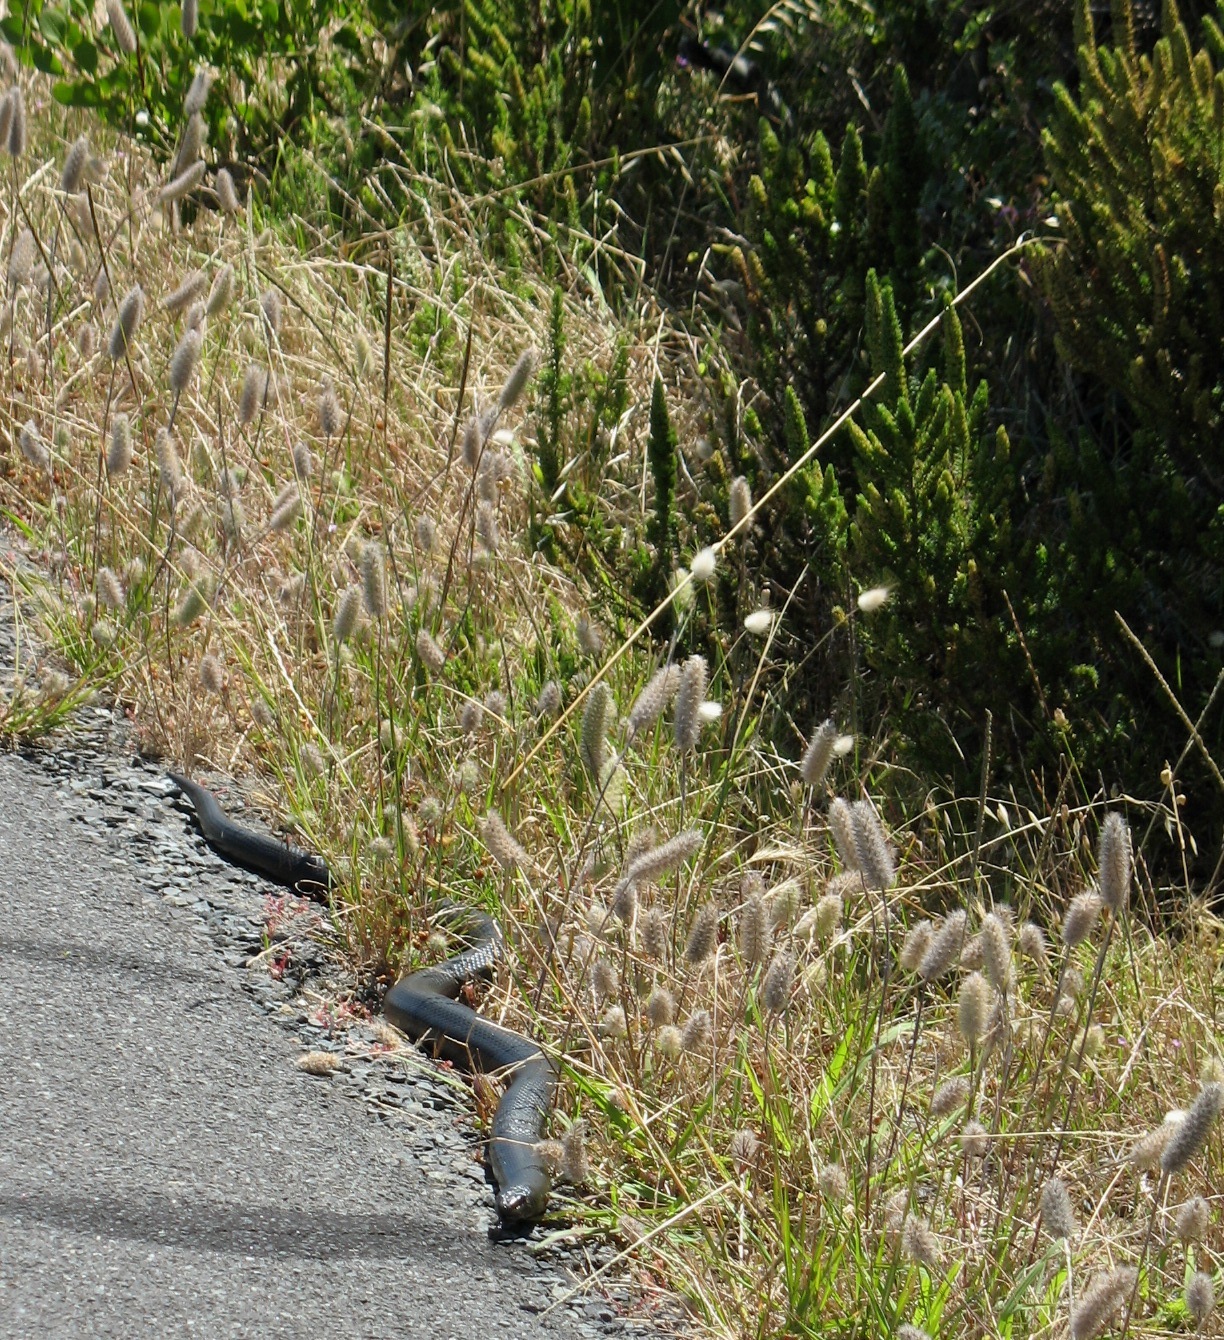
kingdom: Animalia
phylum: Chordata
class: Squamata
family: Pseudaspididae
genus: Pseudaspis
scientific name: Pseudaspis cana
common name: Mole snake
